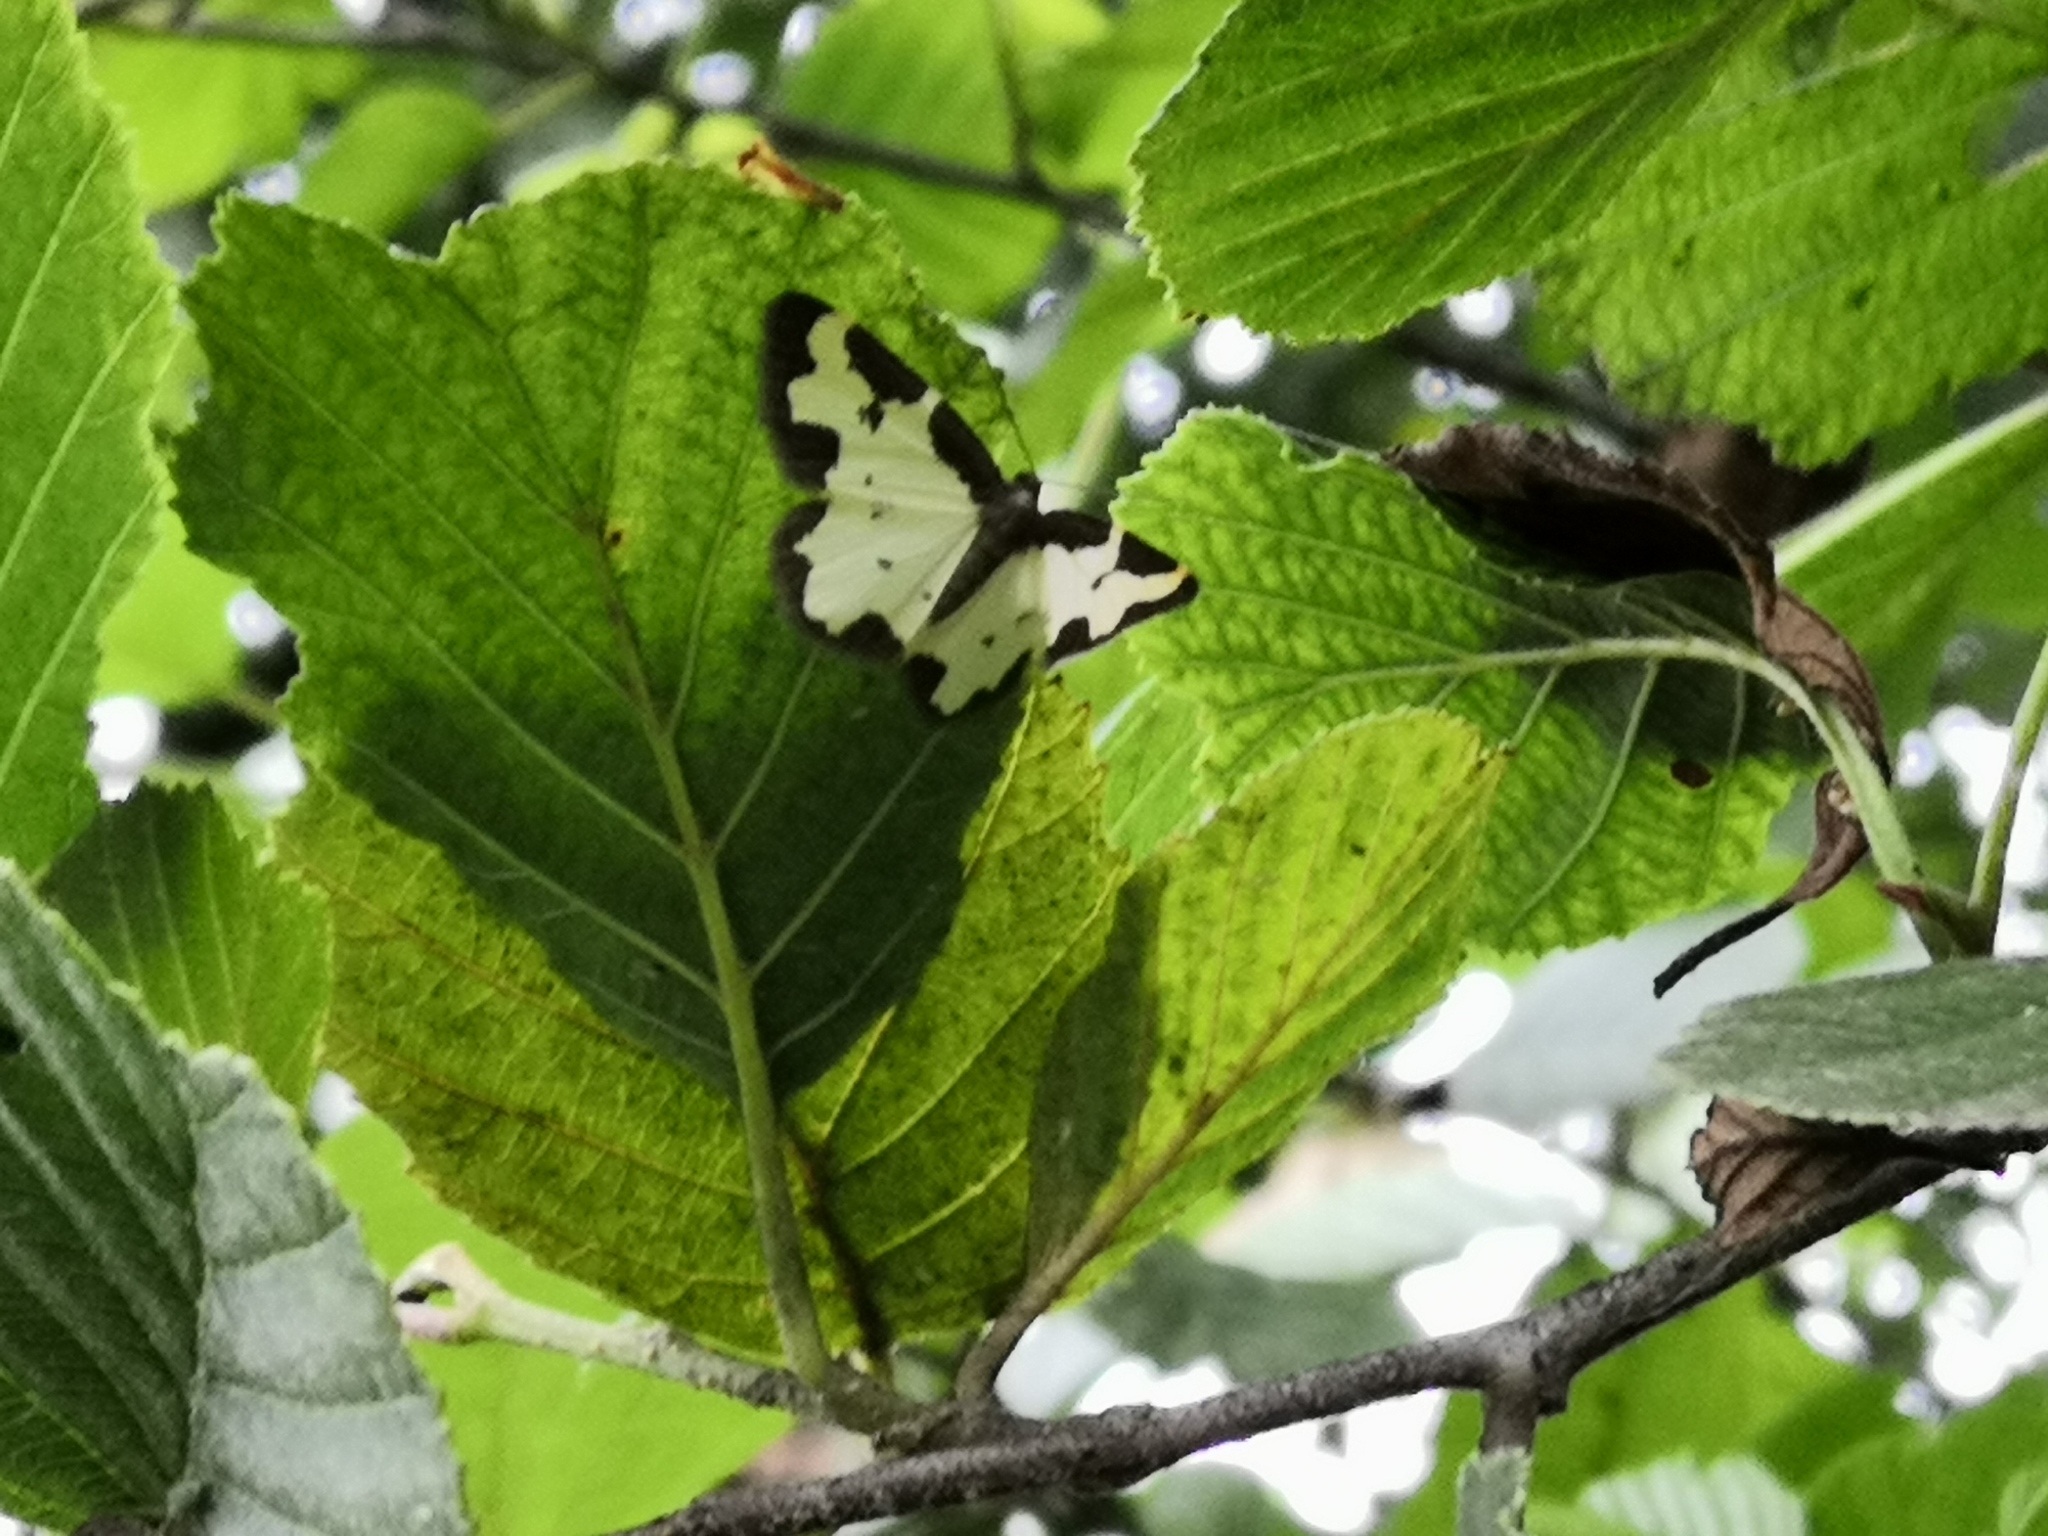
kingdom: Animalia
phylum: Arthropoda
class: Insecta
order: Lepidoptera
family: Geometridae
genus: Lomaspilis
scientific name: Lomaspilis marginata
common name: Clouded border
